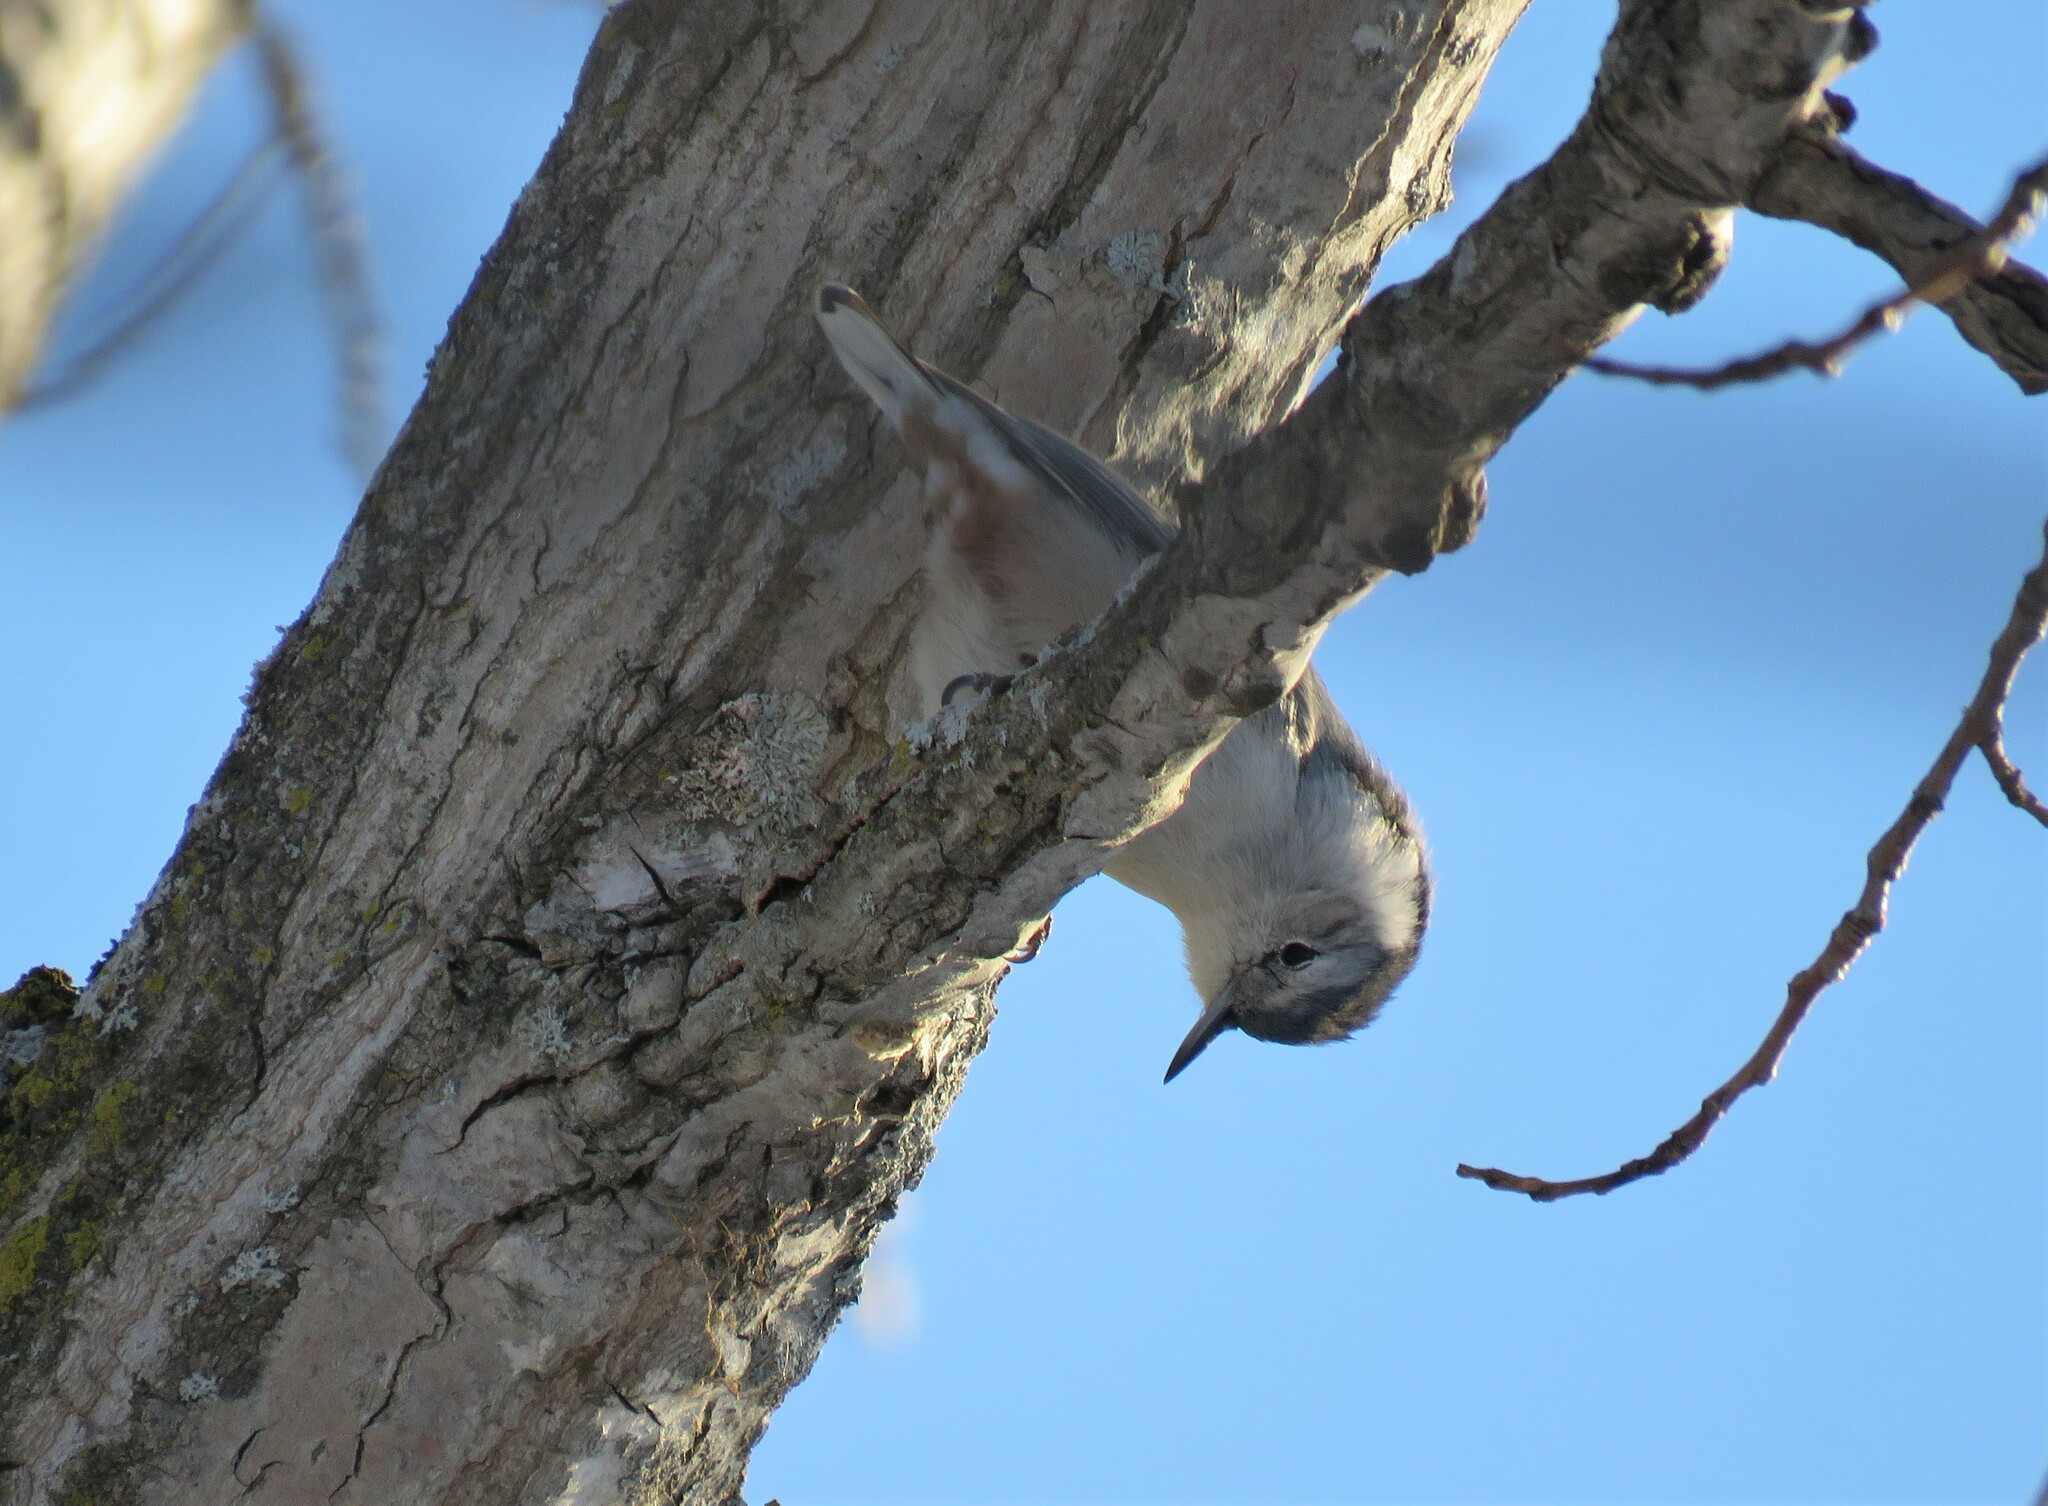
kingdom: Animalia
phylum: Chordata
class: Aves
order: Passeriformes
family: Sittidae
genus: Sitta
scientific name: Sitta carolinensis
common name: White-breasted nuthatch
